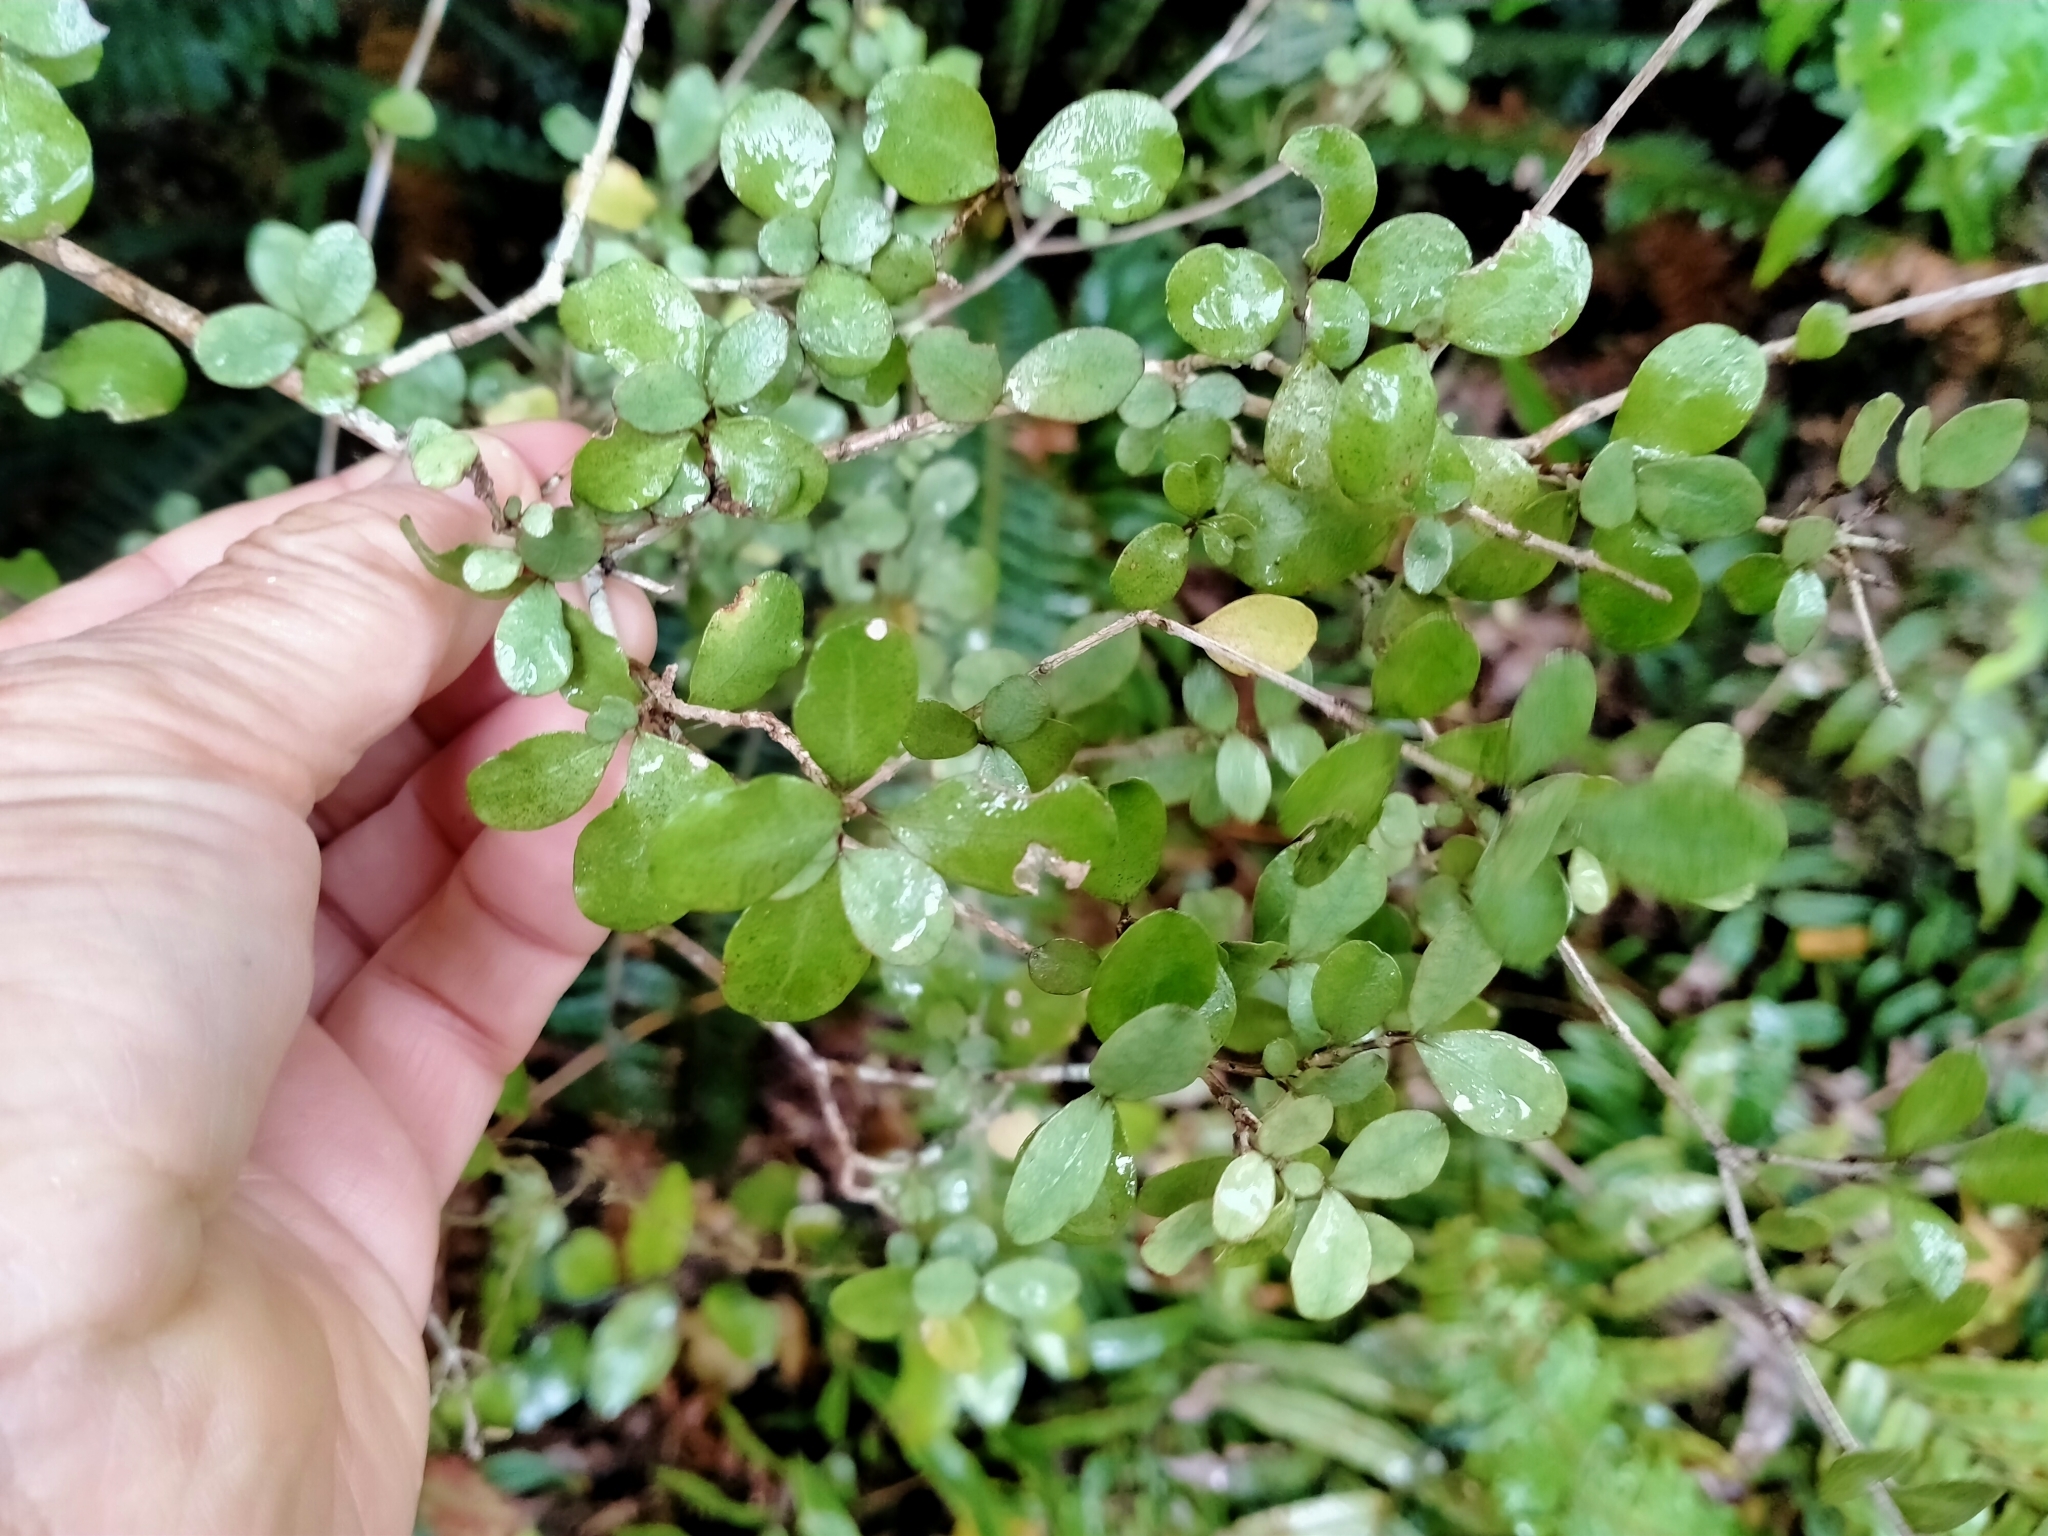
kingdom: Plantae
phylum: Tracheophyta
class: Magnoliopsida
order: Myrtales
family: Myrtaceae
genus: Neomyrtus
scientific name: Neomyrtus pedunculata
